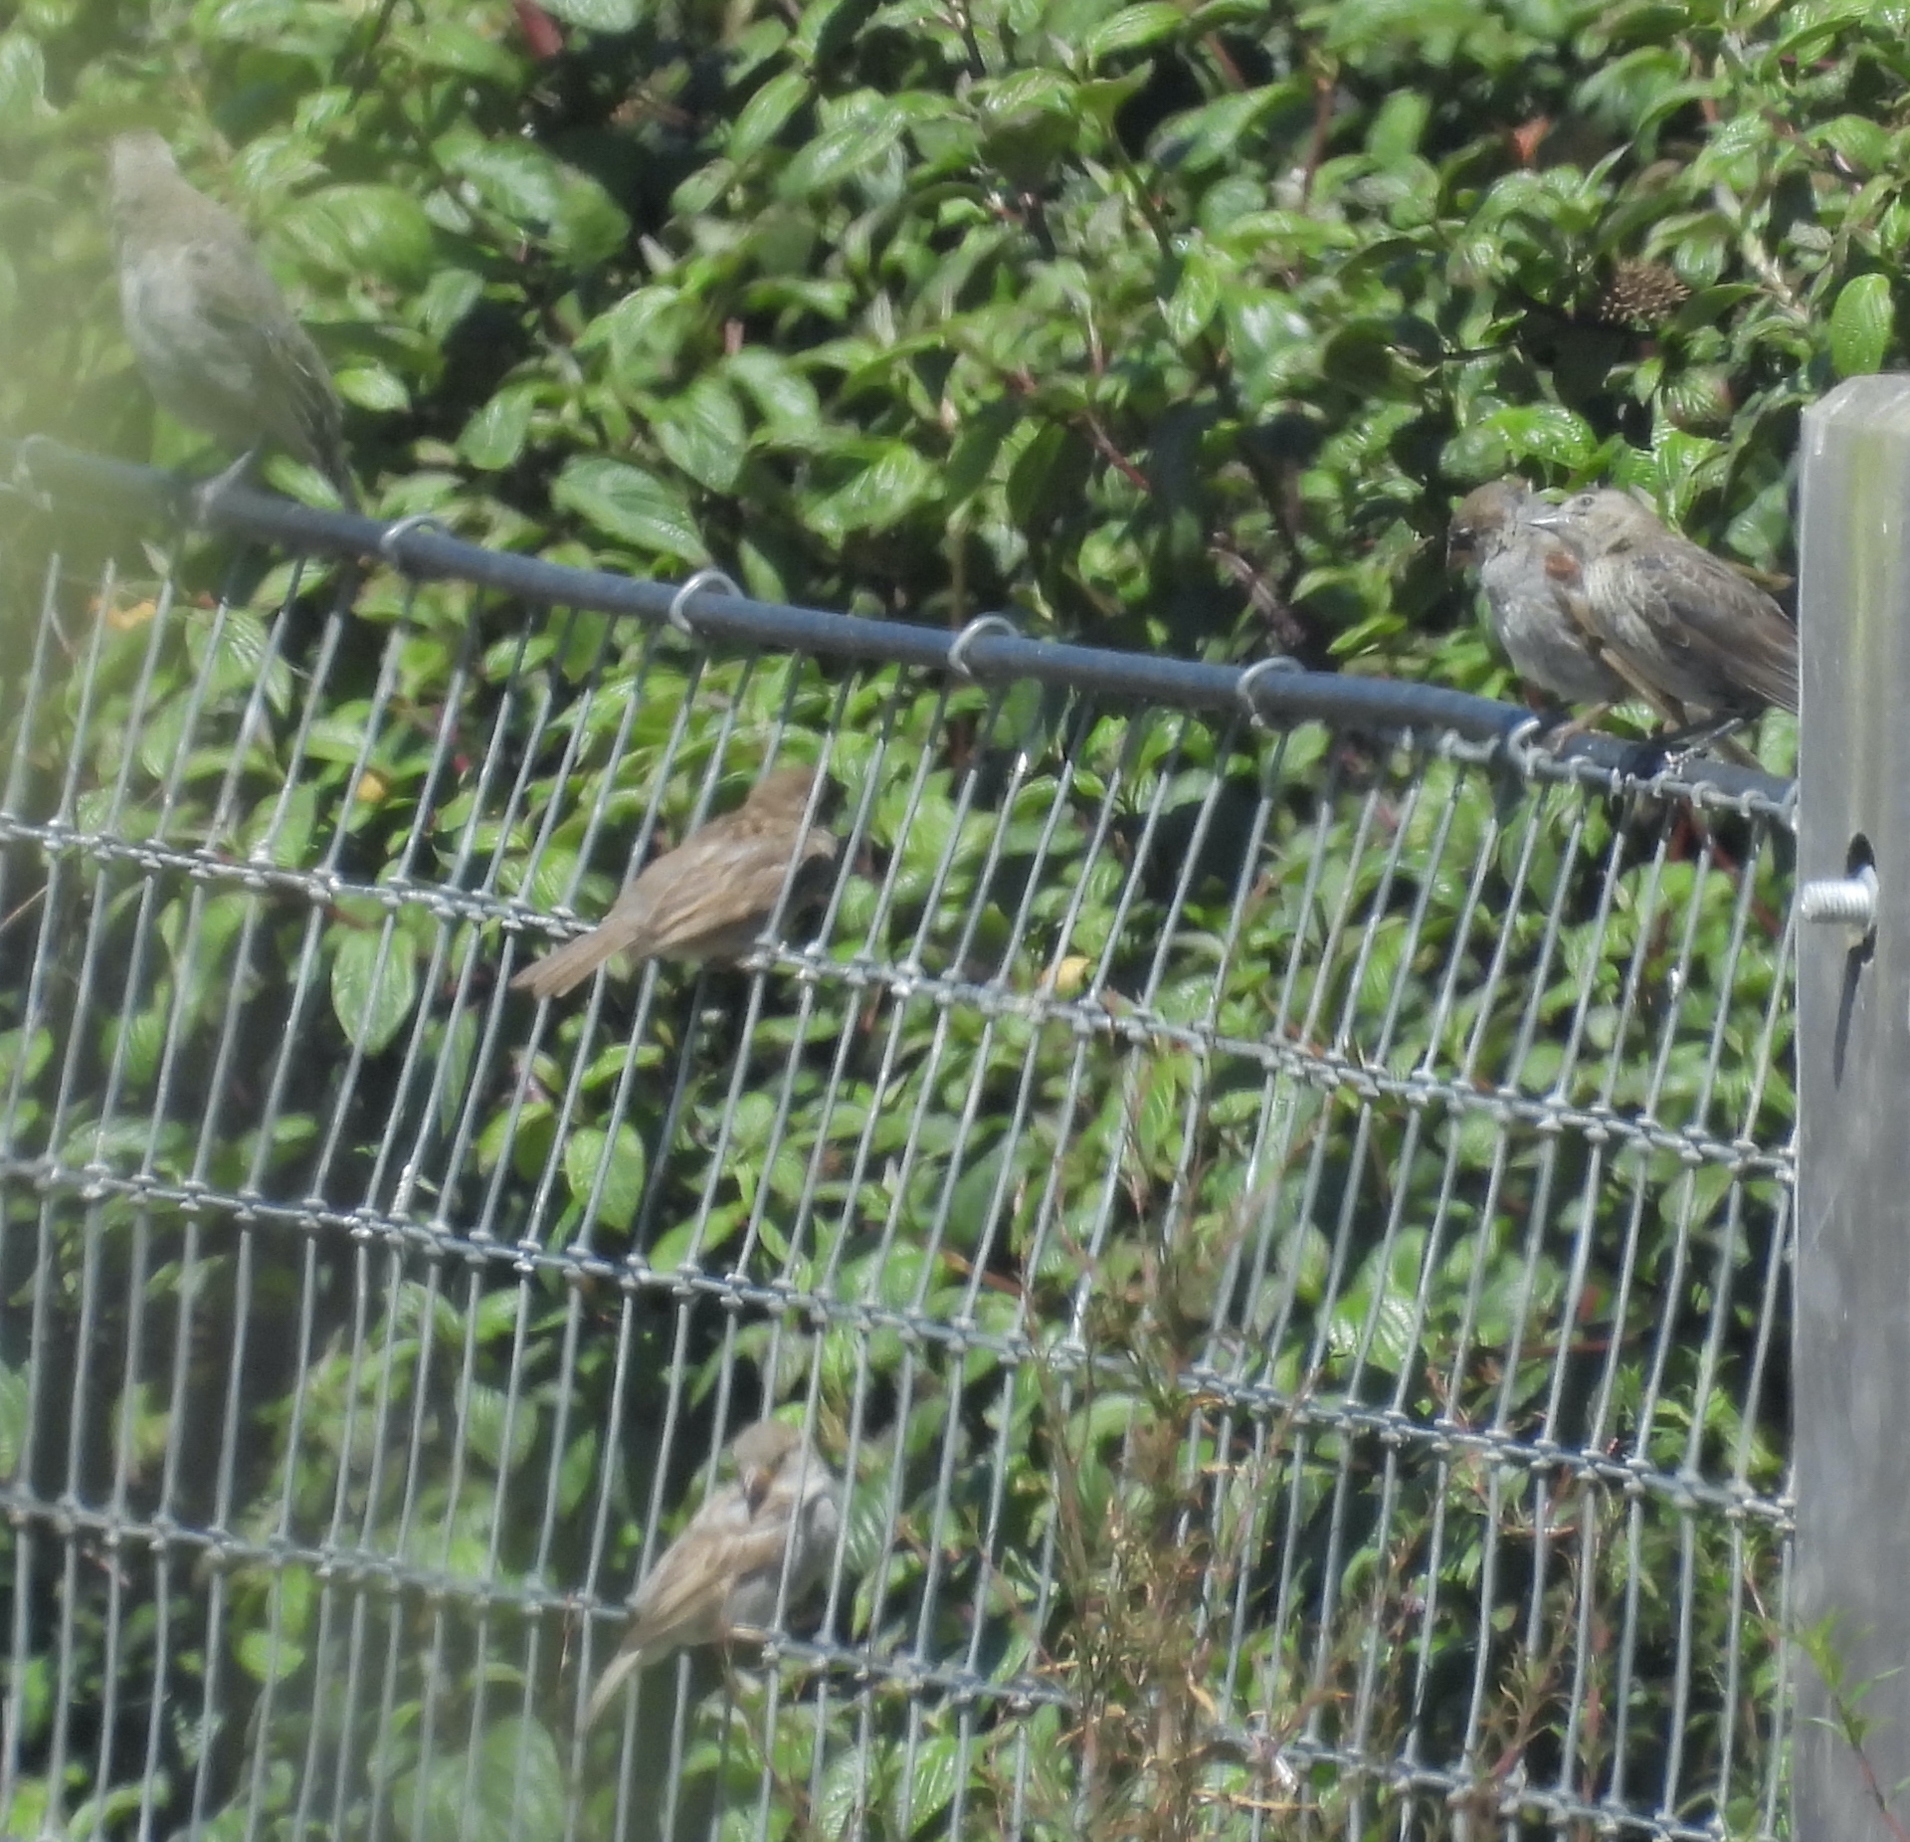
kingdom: Animalia
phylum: Chordata
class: Aves
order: Passeriformes
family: Passeridae
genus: Passer
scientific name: Passer domesticus
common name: House sparrow
